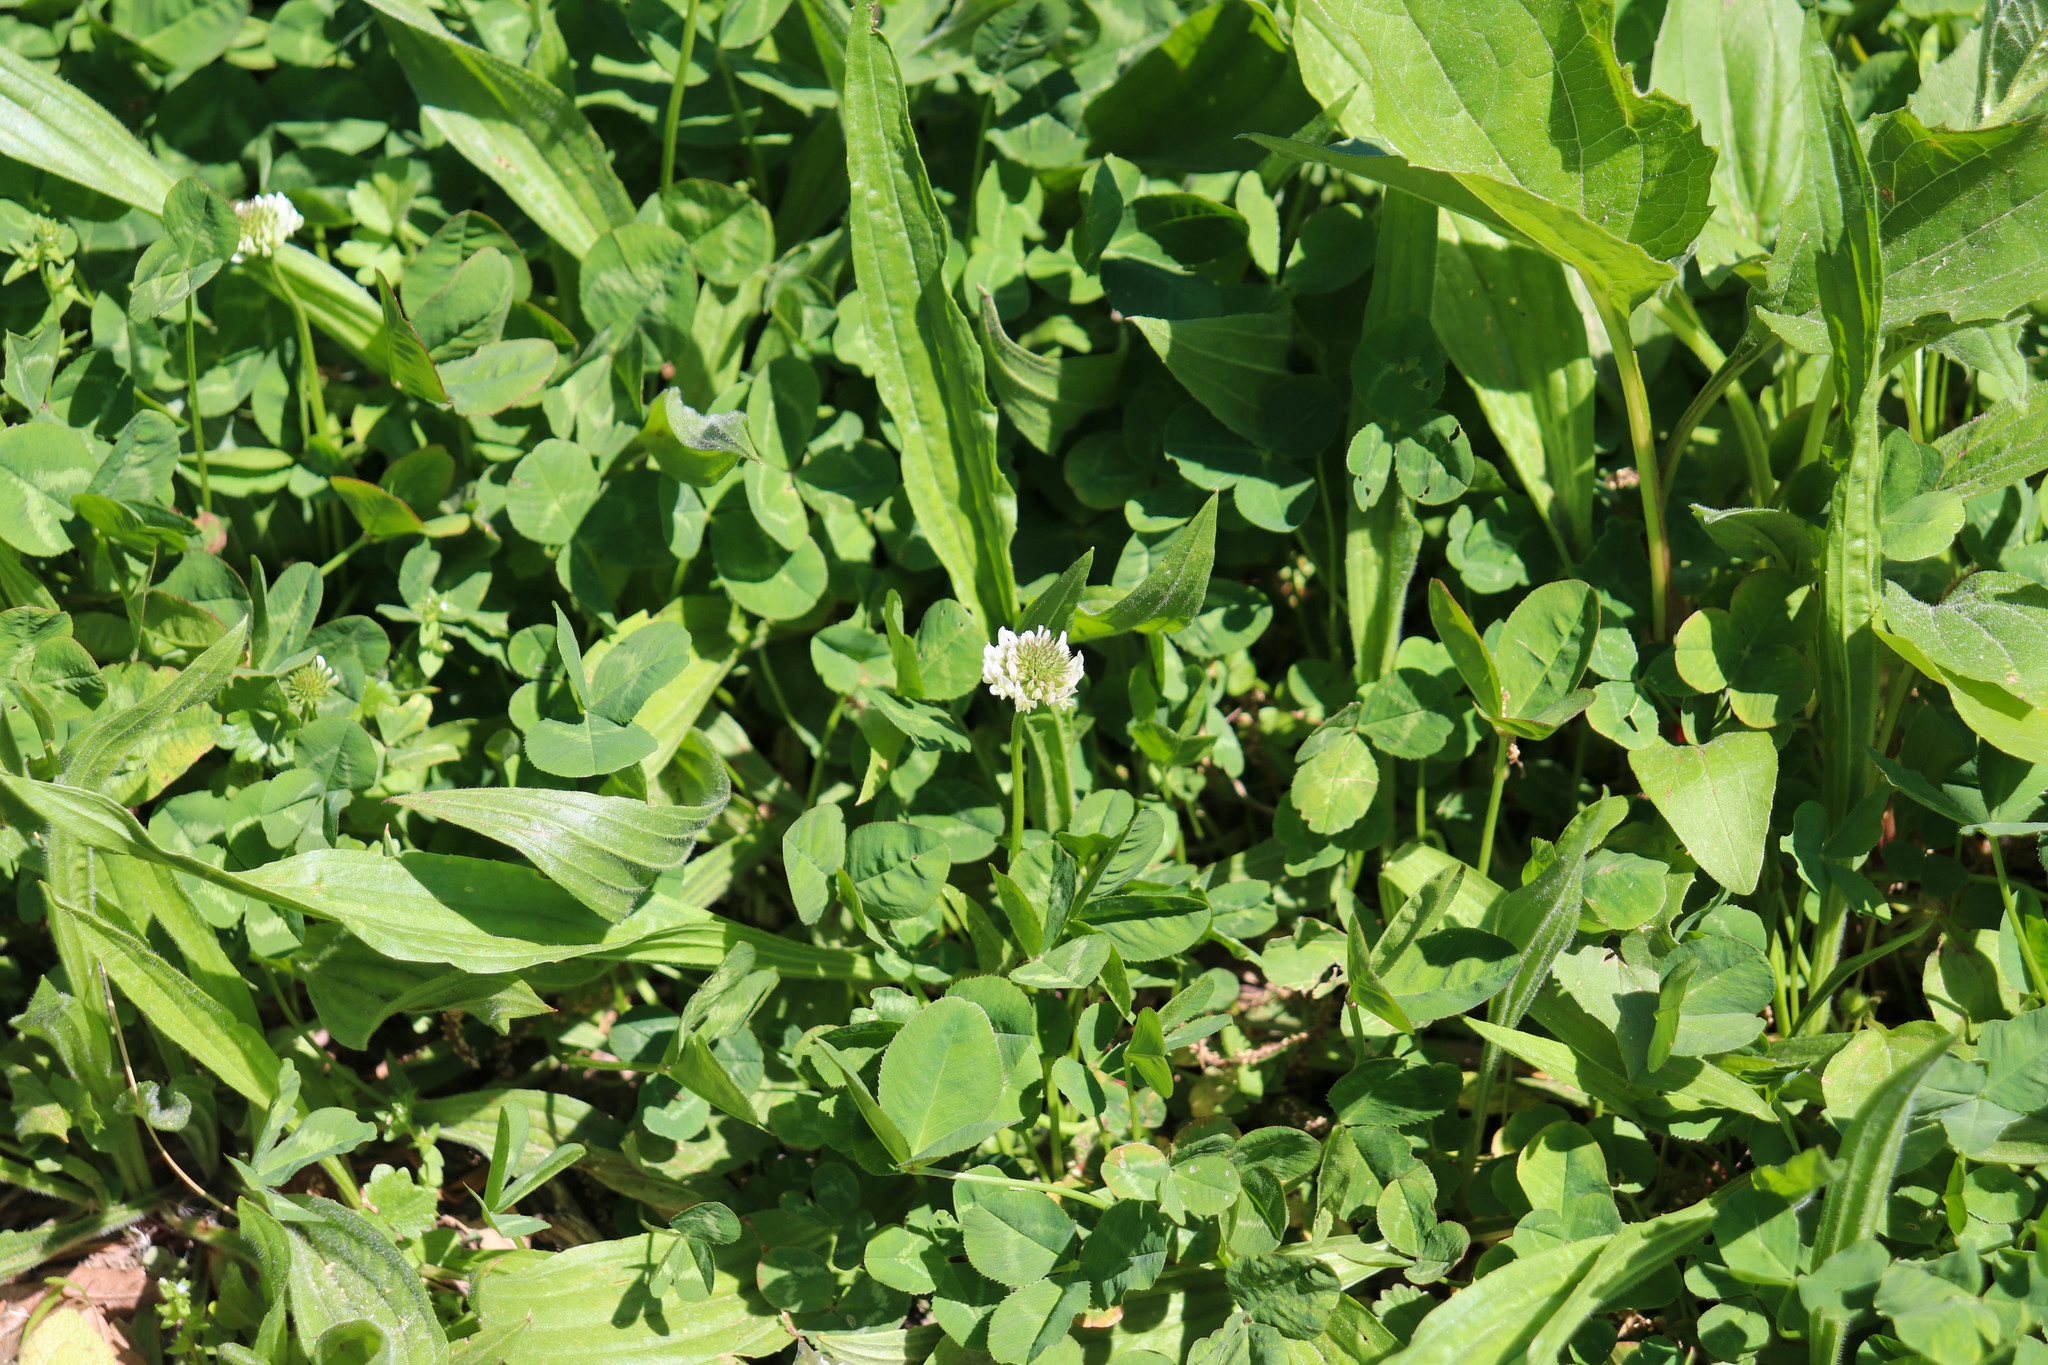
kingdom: Plantae
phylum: Tracheophyta
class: Magnoliopsida
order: Fabales
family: Fabaceae
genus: Trifolium
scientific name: Trifolium repens
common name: White clover
